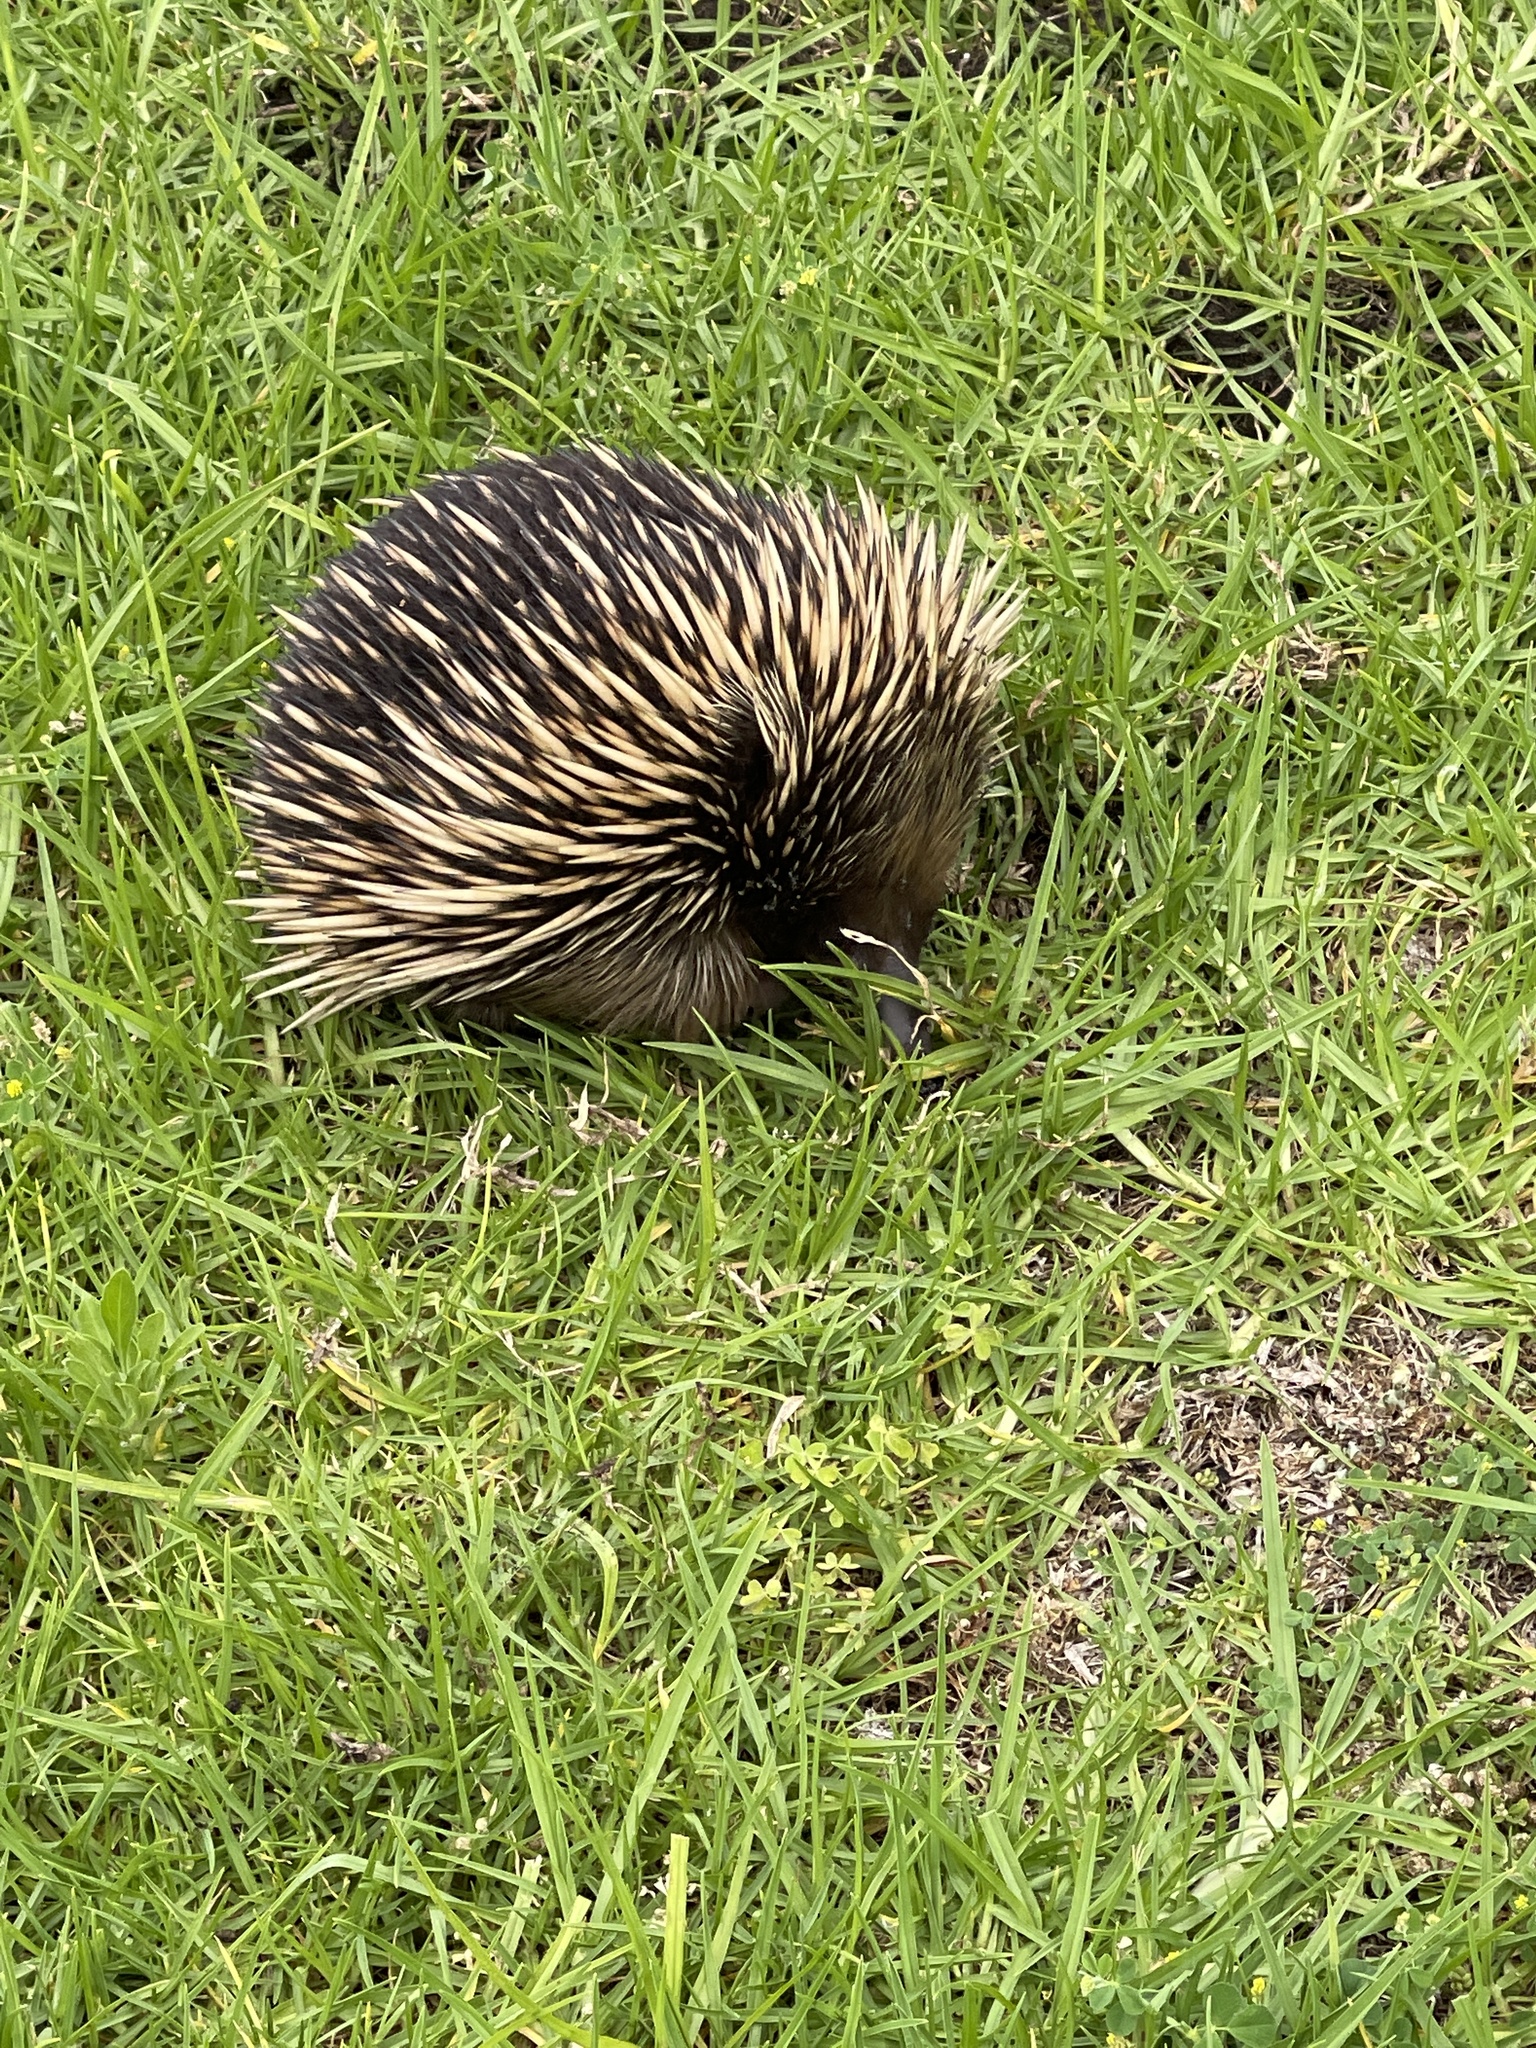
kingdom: Animalia
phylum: Chordata
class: Mammalia
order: Monotremata
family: Tachyglossidae
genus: Tachyglossus
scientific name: Tachyglossus aculeatus
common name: Short-beaked echidna
